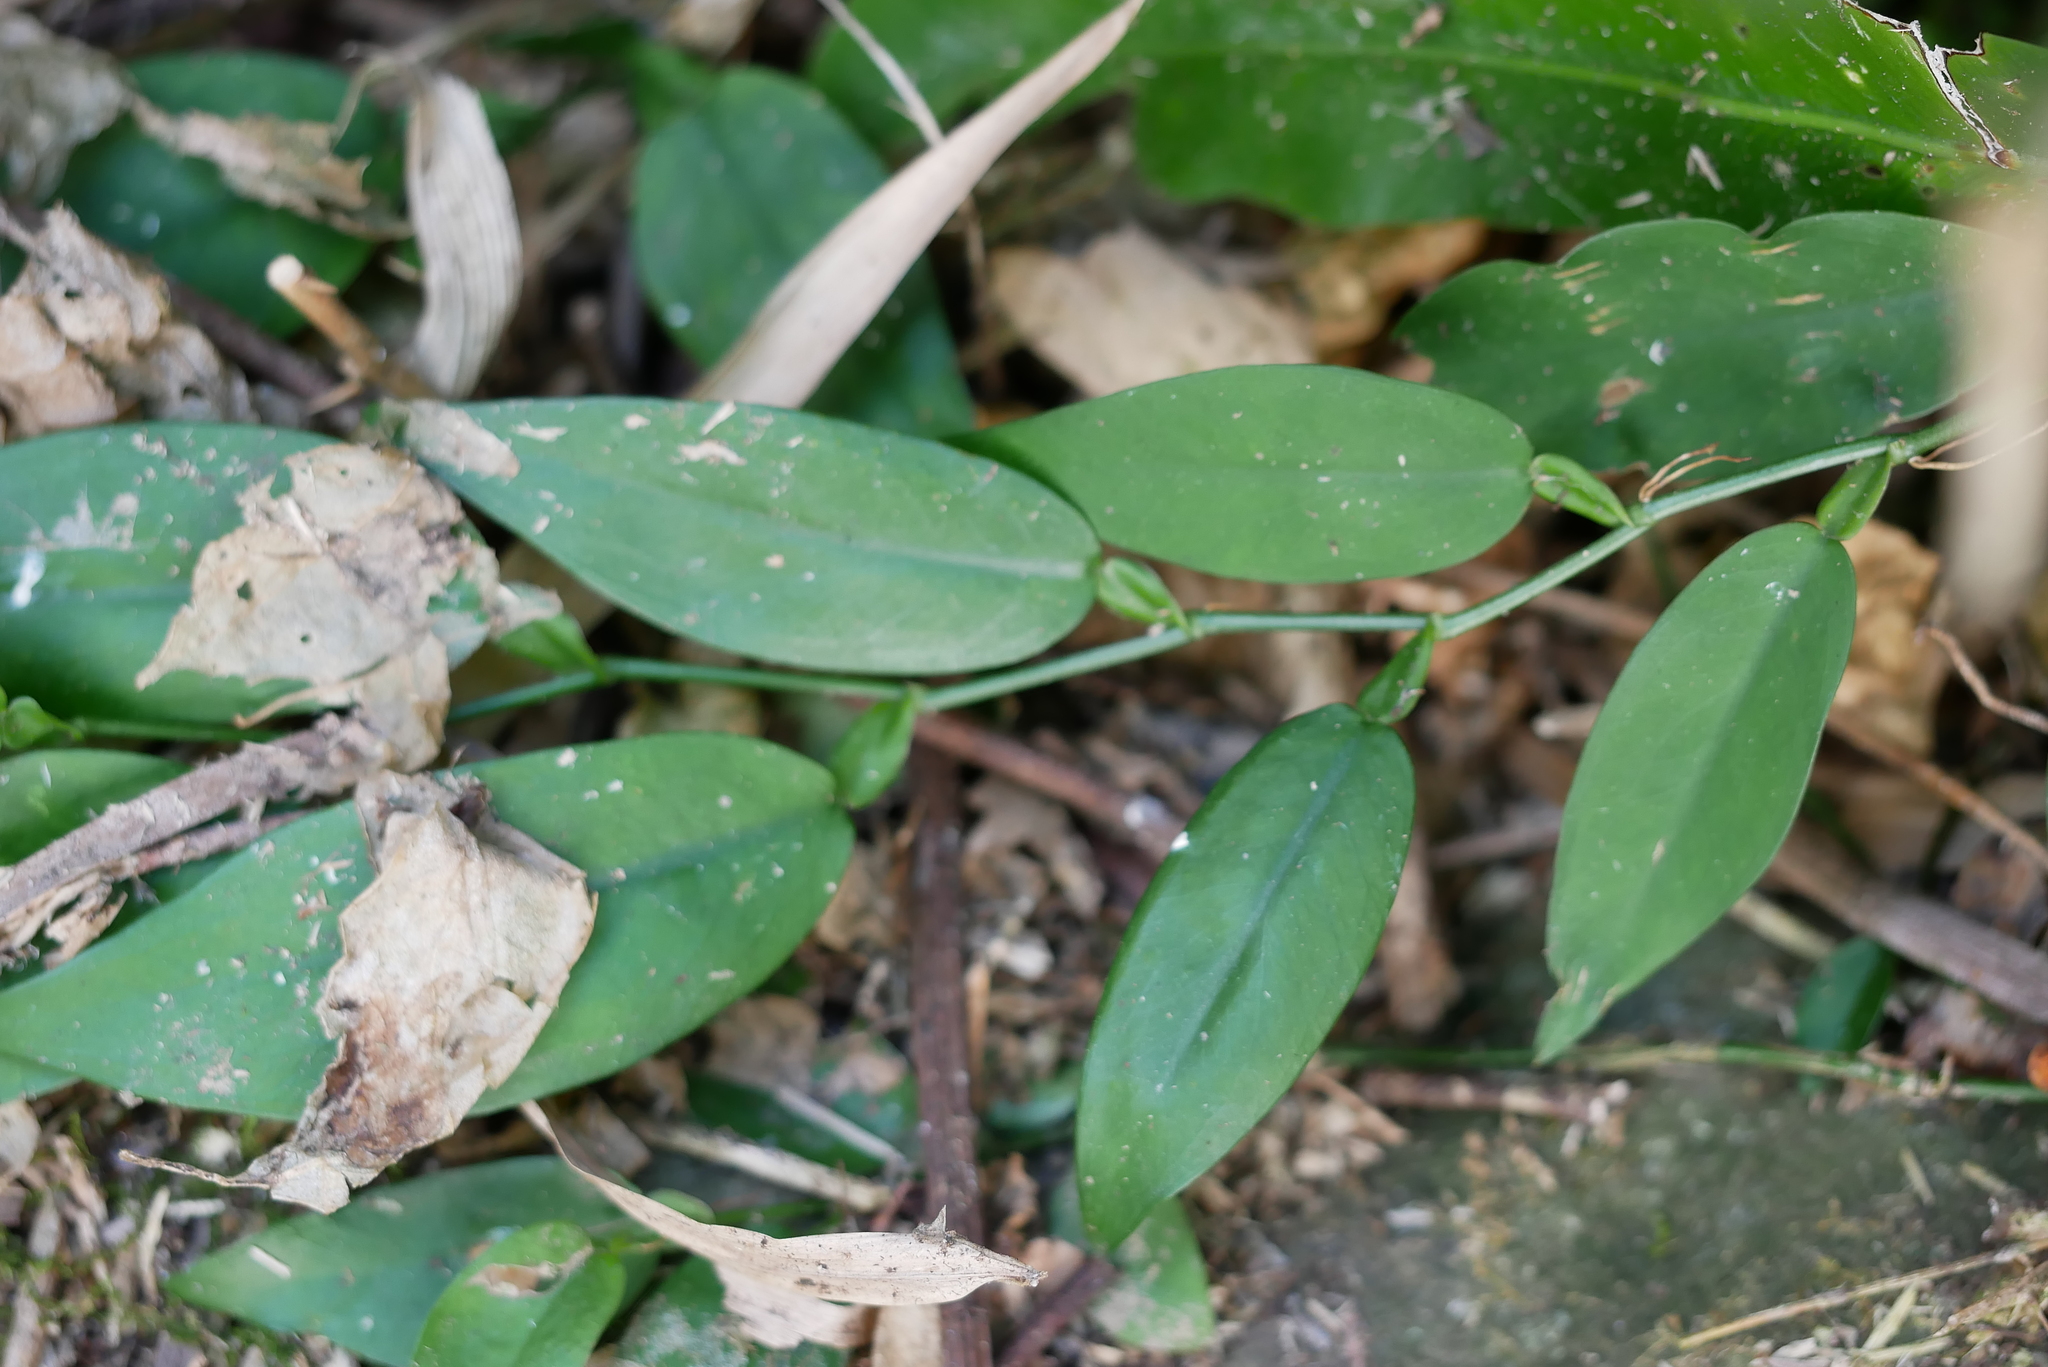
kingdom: Plantae
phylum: Tracheophyta
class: Liliopsida
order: Alismatales
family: Araceae
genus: Pothos
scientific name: Pothos chinensis
